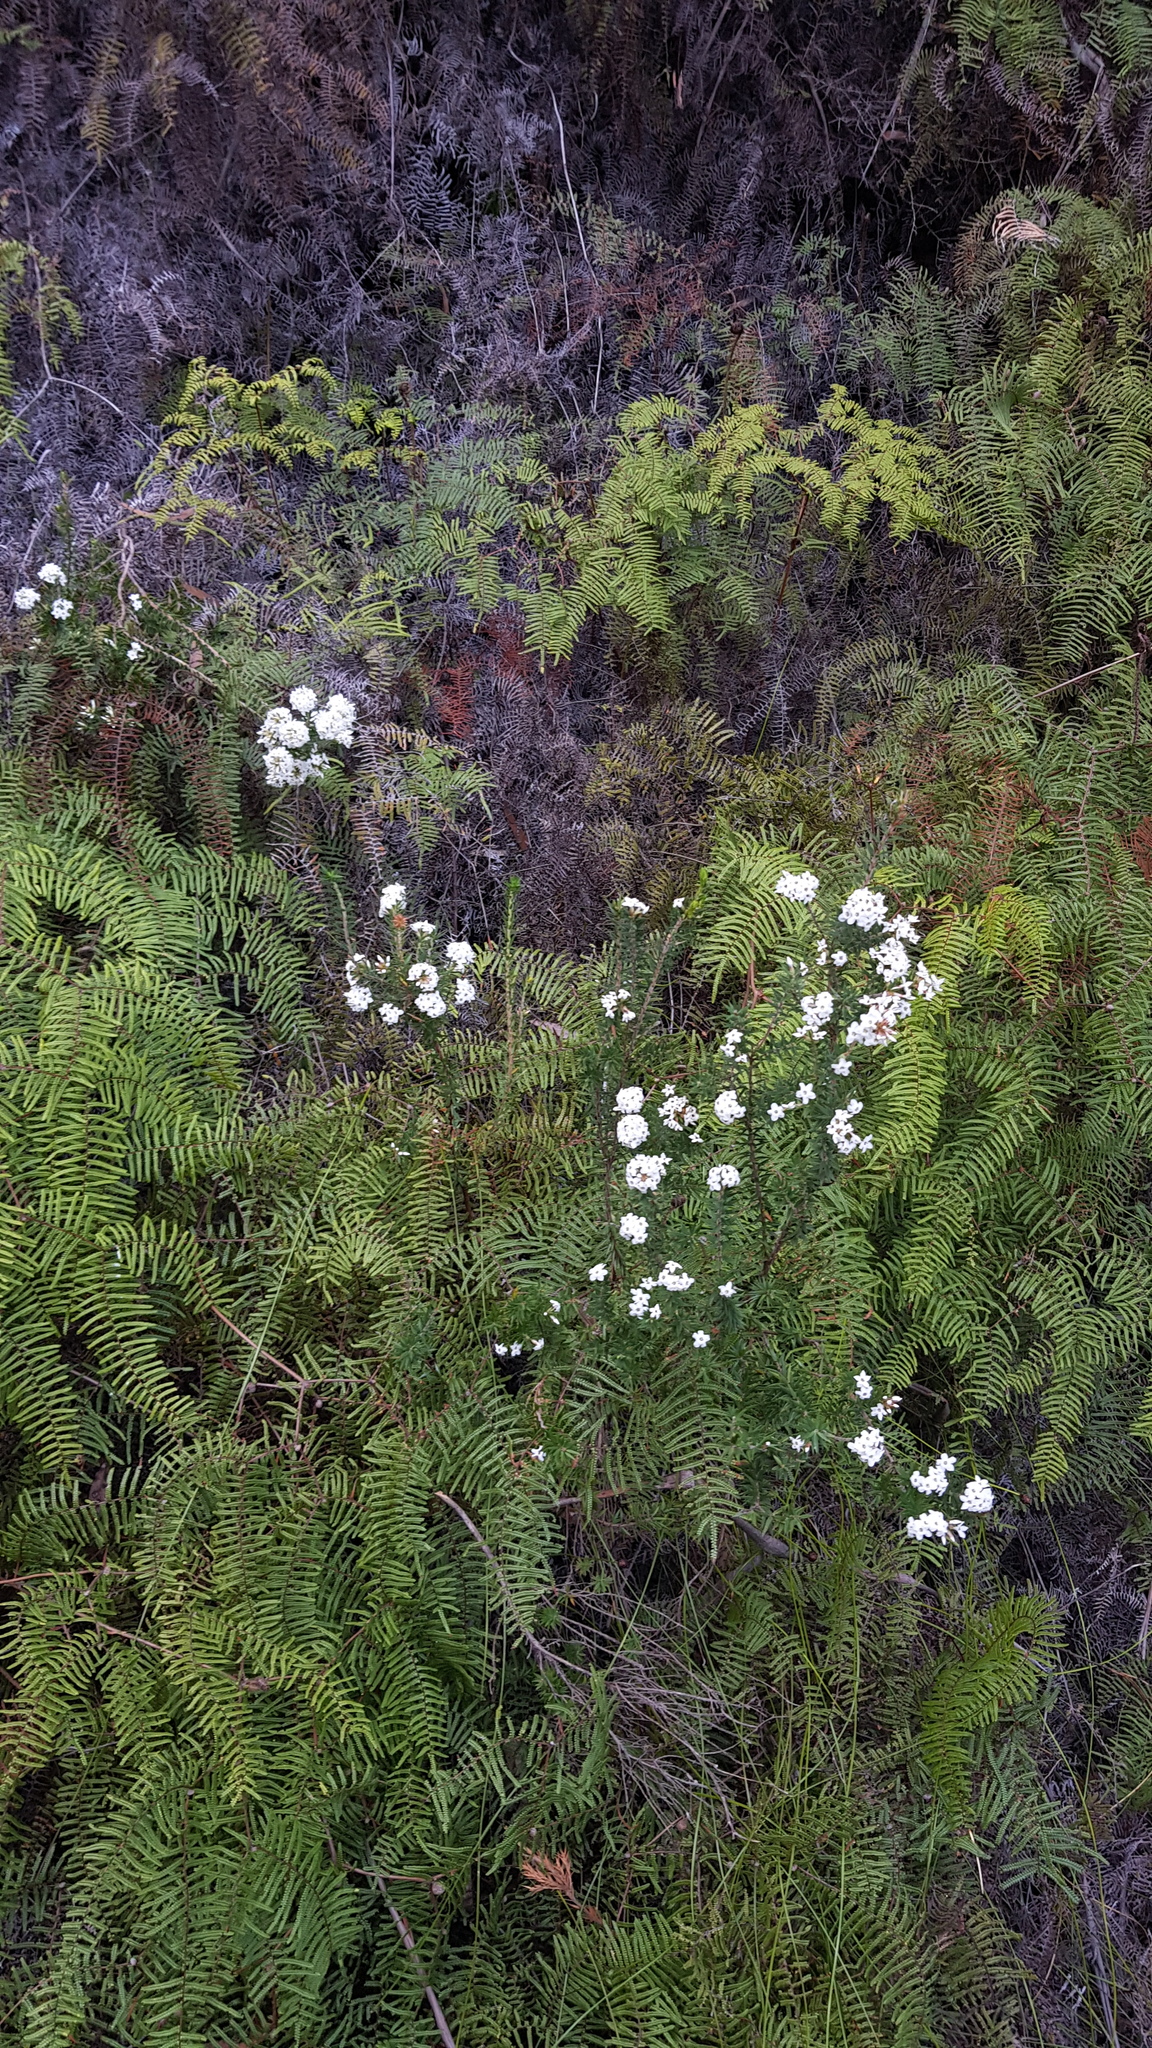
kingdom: Plantae
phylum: Tracheophyta
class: Magnoliopsida
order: Ericales
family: Ericaceae
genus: Epacris
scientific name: Epacris paludosa
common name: Swamp-heath
